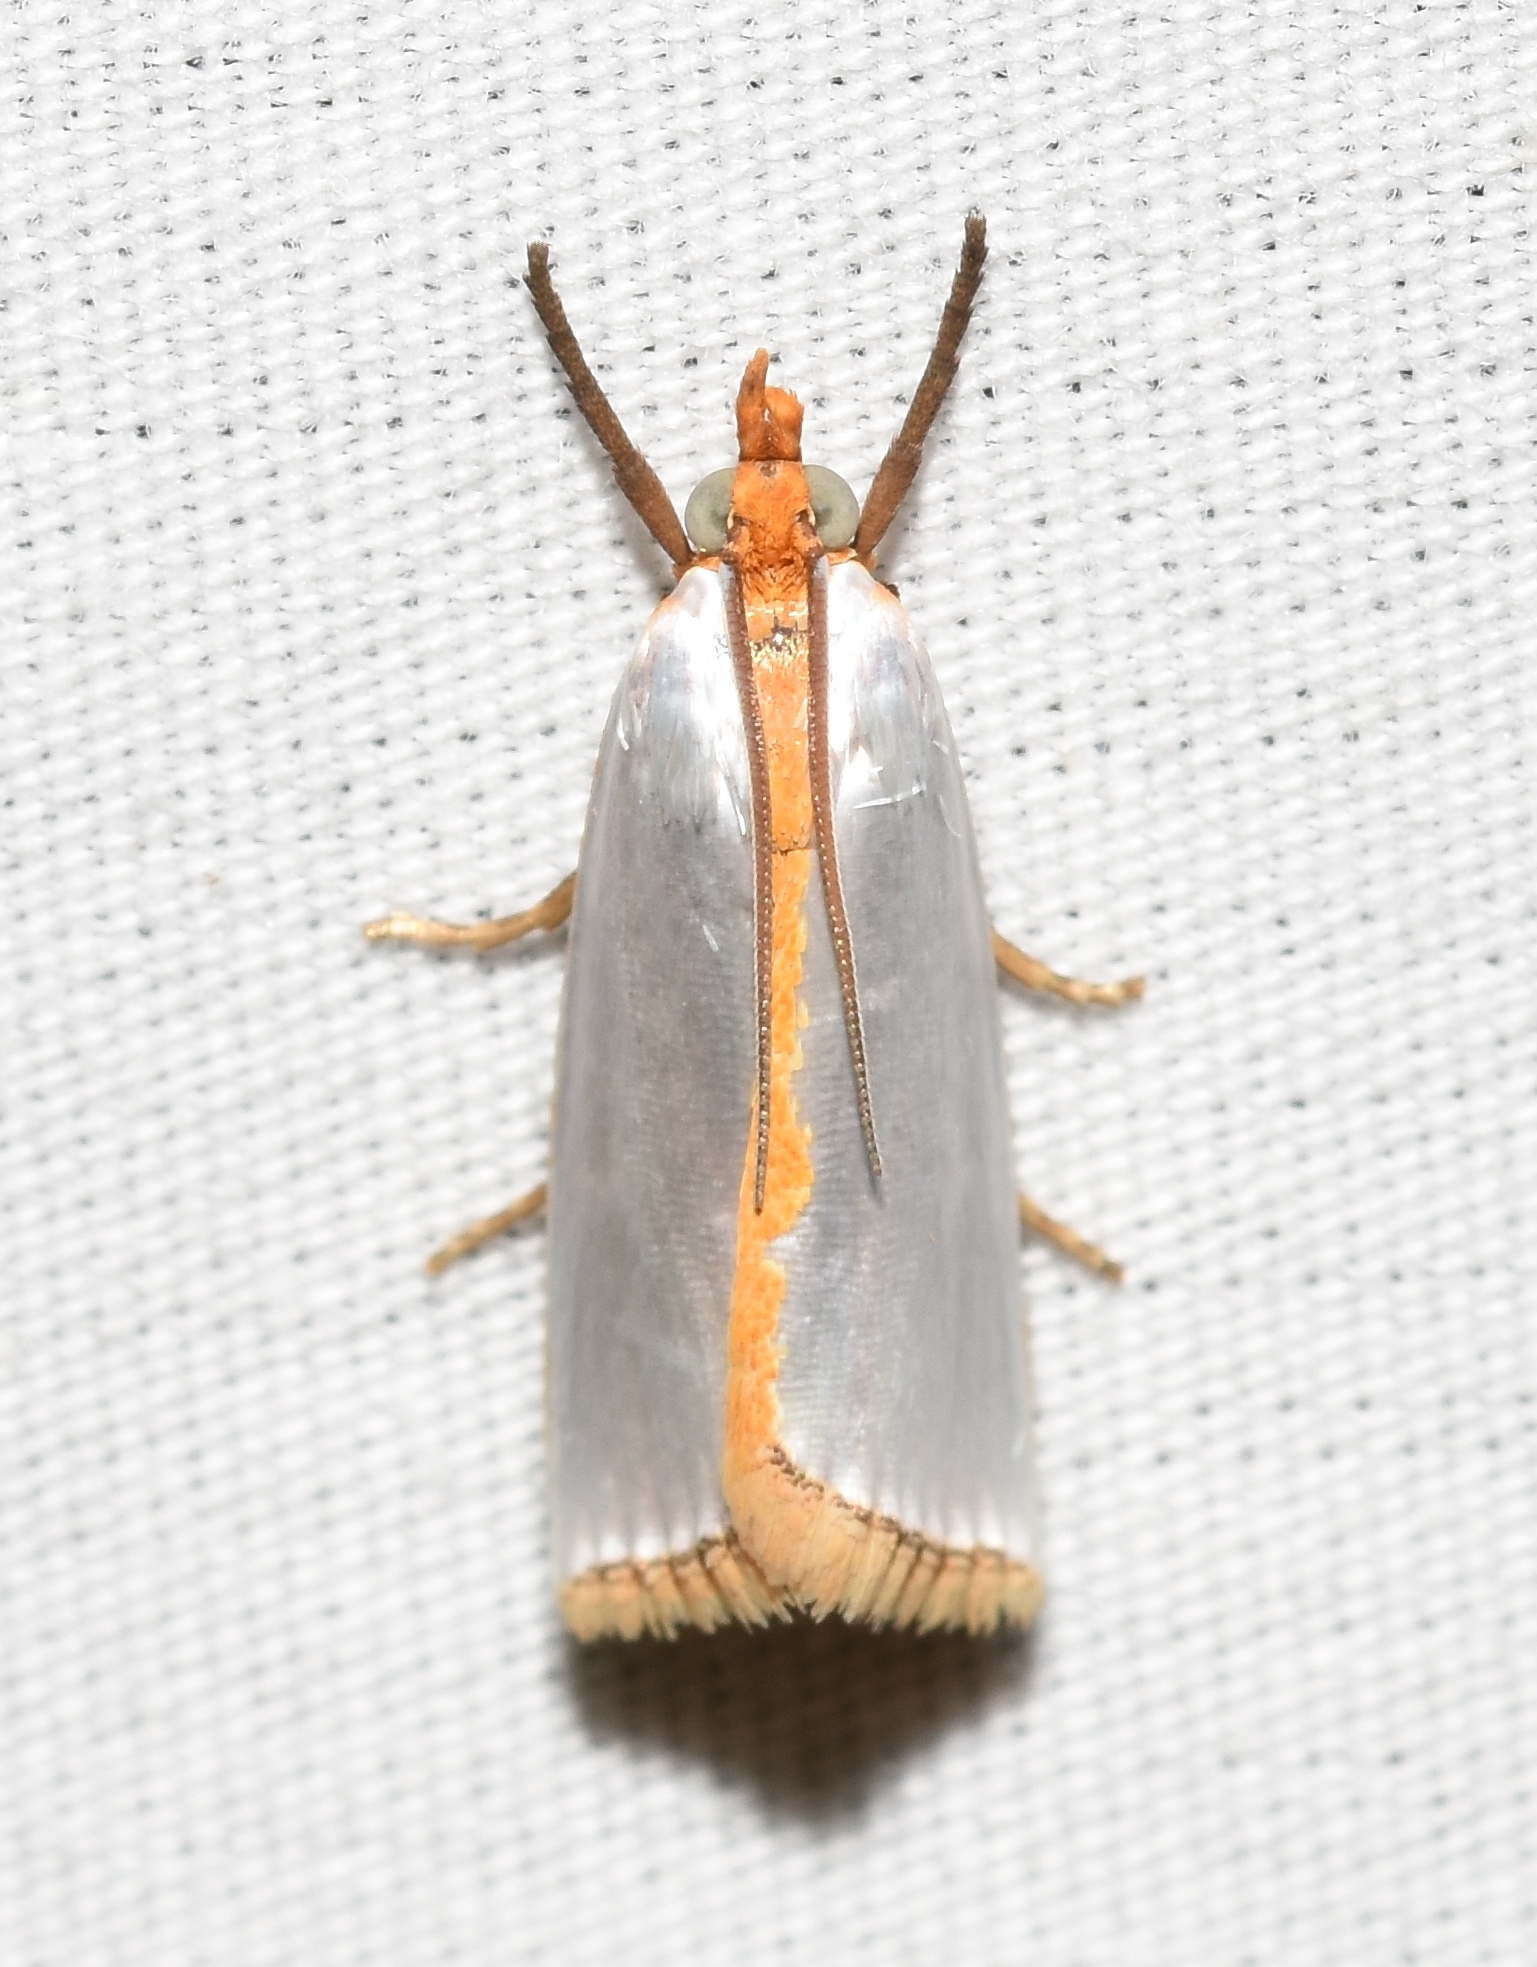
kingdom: Animalia
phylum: Arthropoda
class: Insecta
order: Lepidoptera
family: Crambidae
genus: Argyria
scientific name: Argyria
